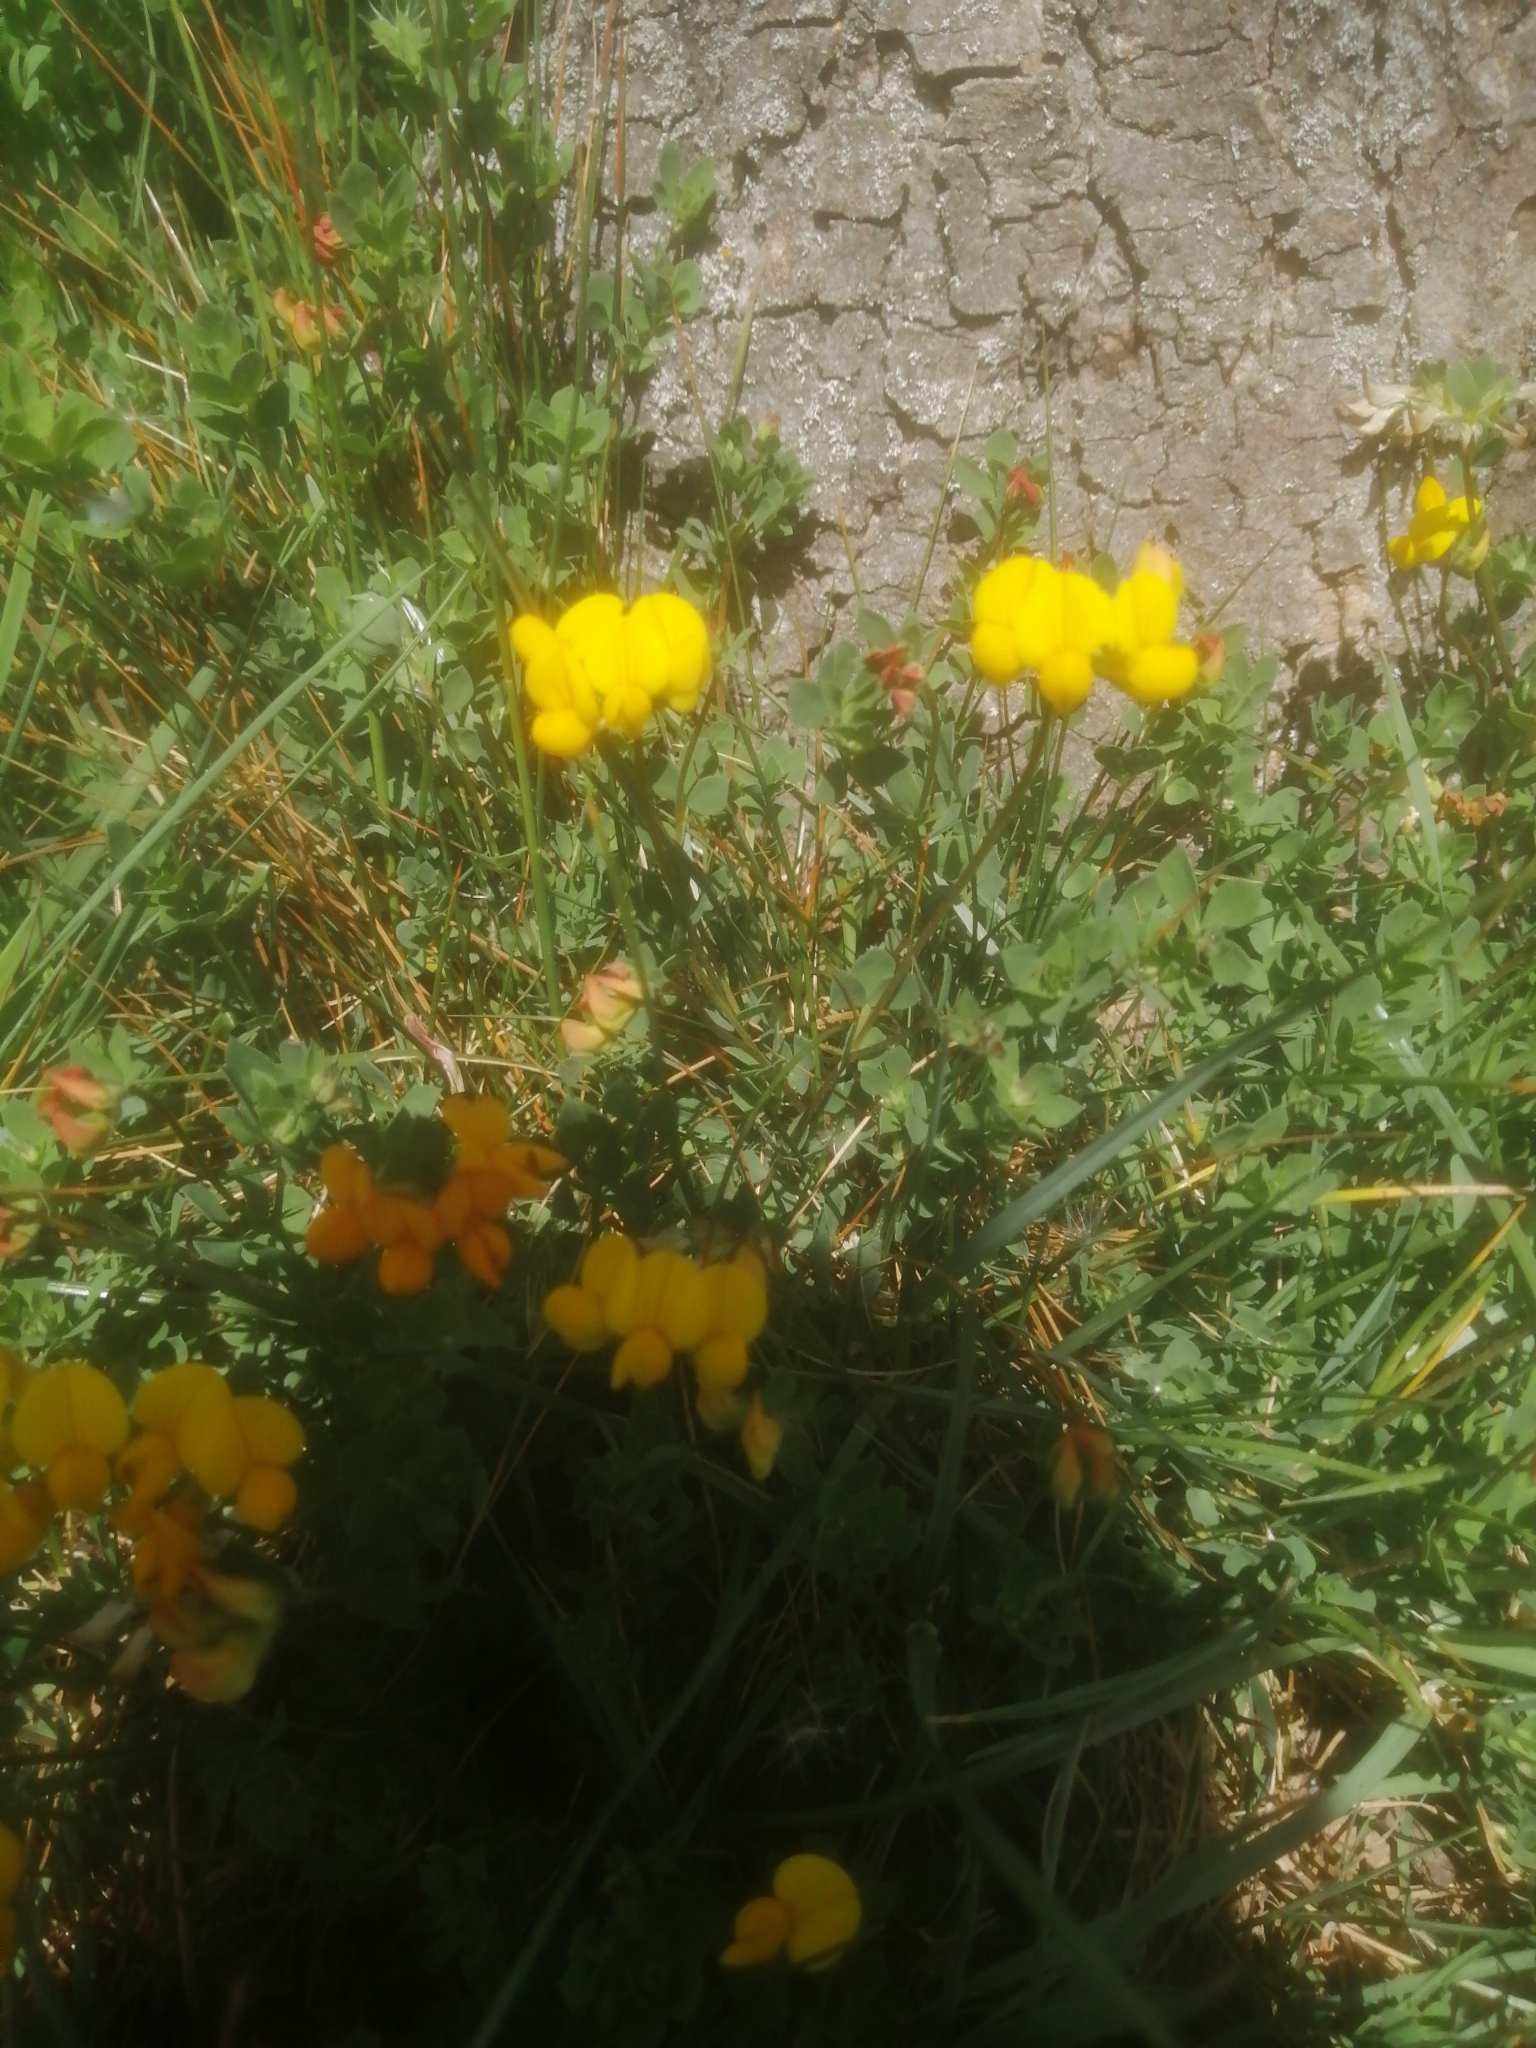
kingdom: Plantae
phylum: Tracheophyta
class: Magnoliopsida
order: Fabales
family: Fabaceae
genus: Lotus
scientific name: Lotus corniculatus
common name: Common bird's-foot-trefoil
